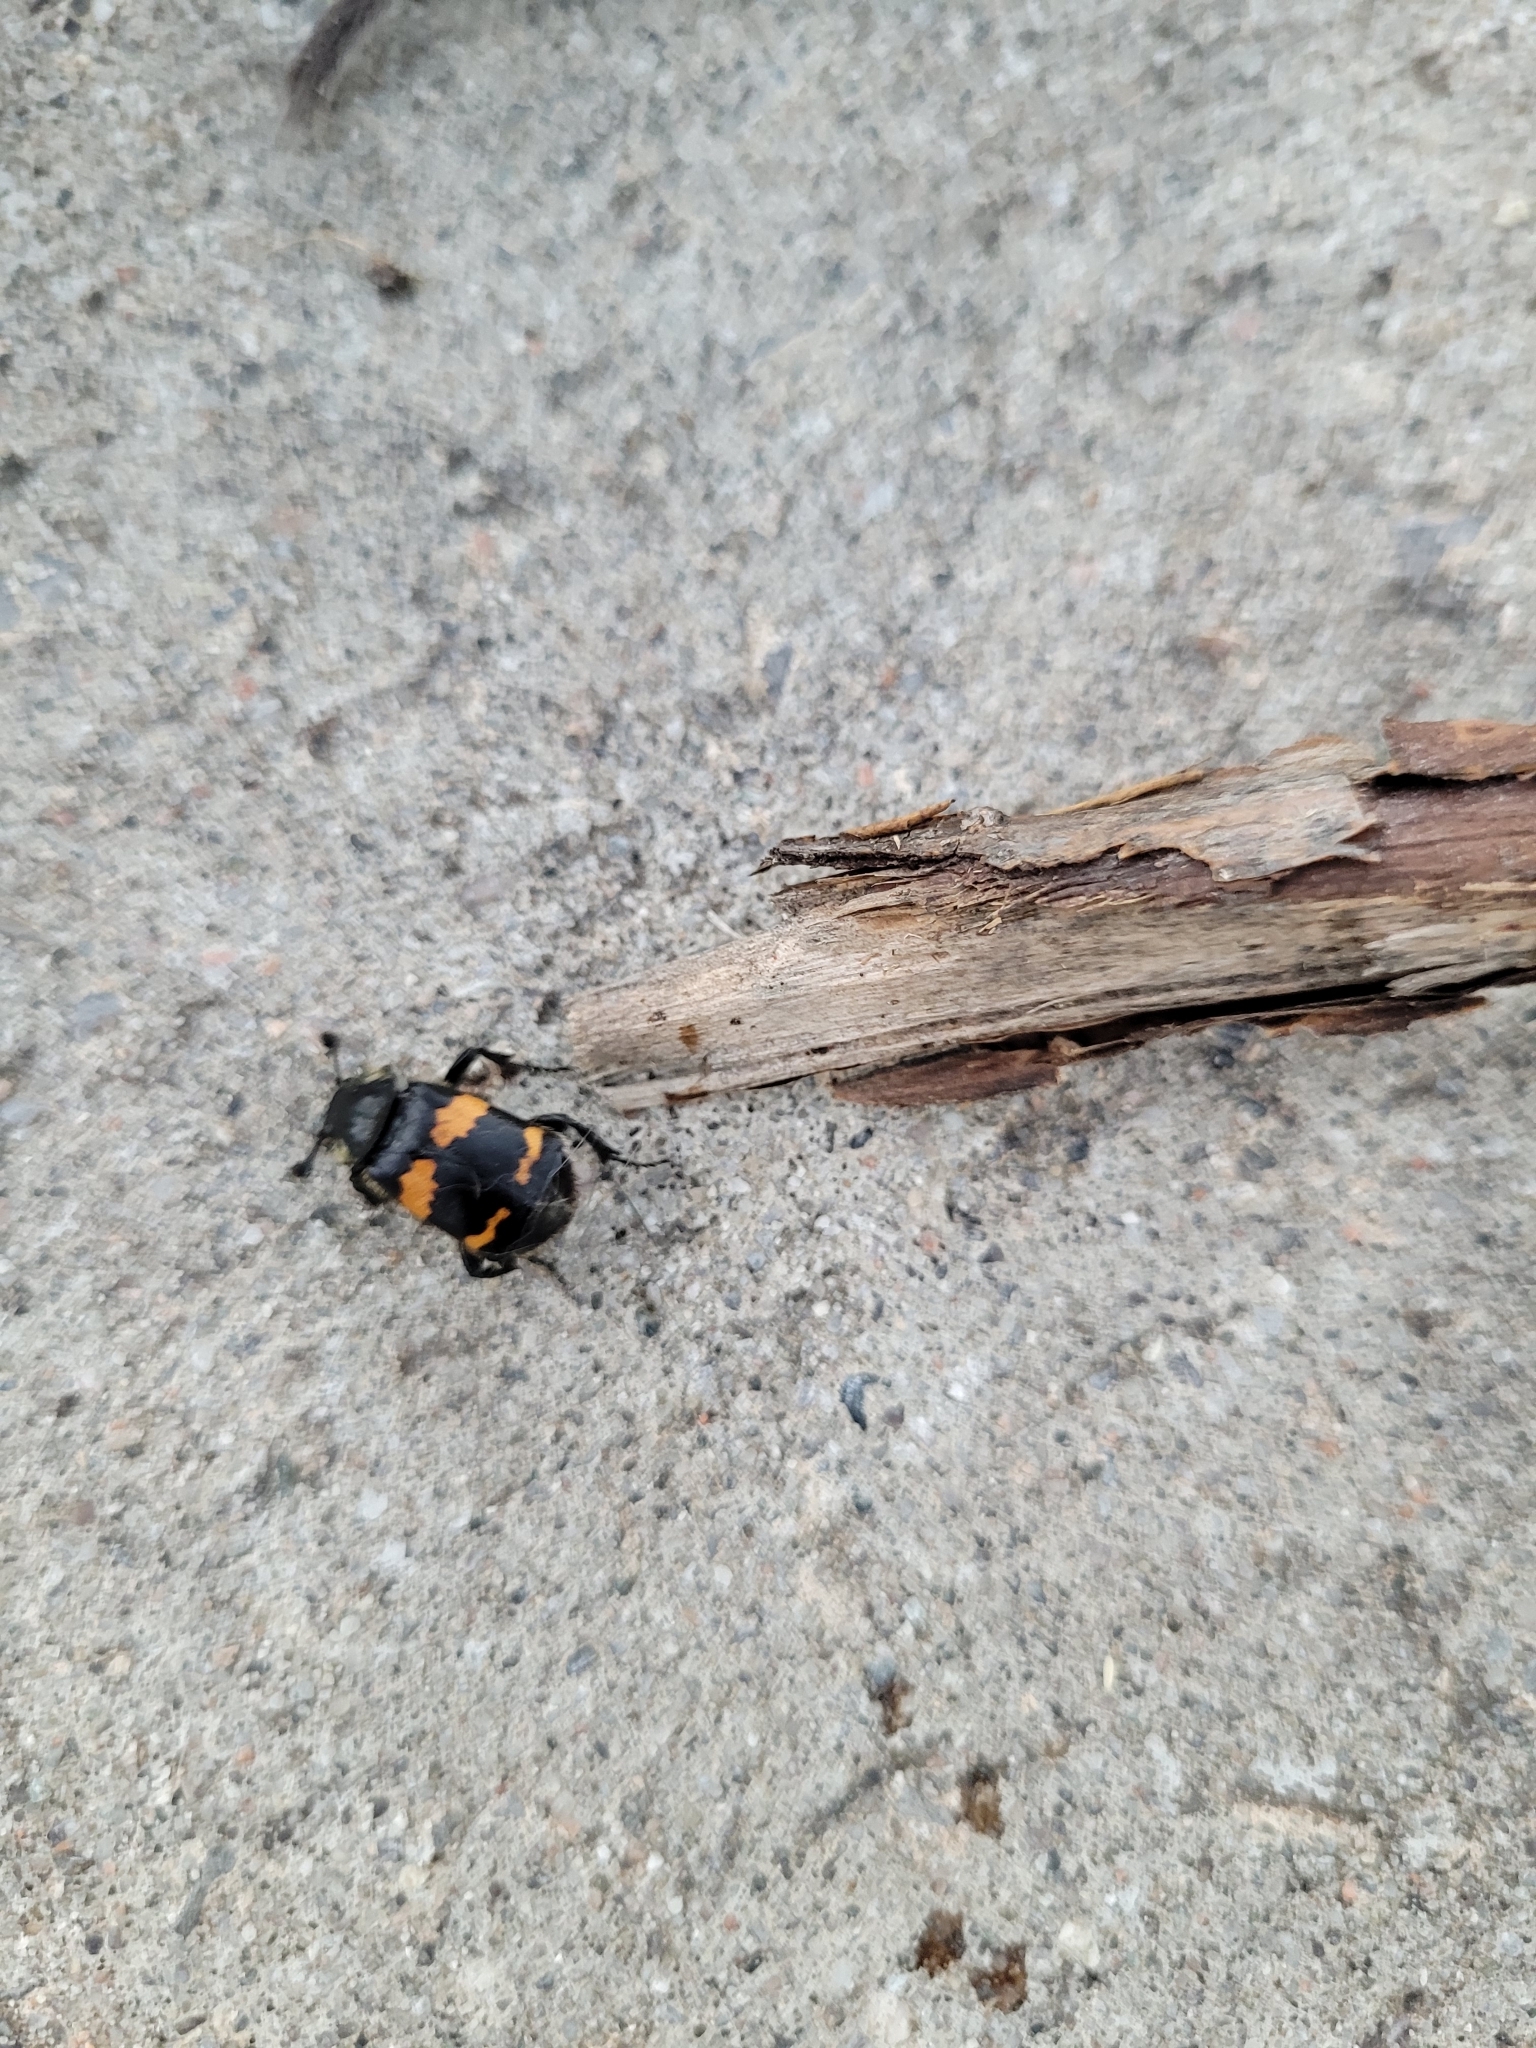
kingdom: Animalia
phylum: Arthropoda
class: Insecta
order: Coleoptera
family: Staphylinidae
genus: Nicrophorus
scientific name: Nicrophorus tomentosus
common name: Tomentose burying beetle
